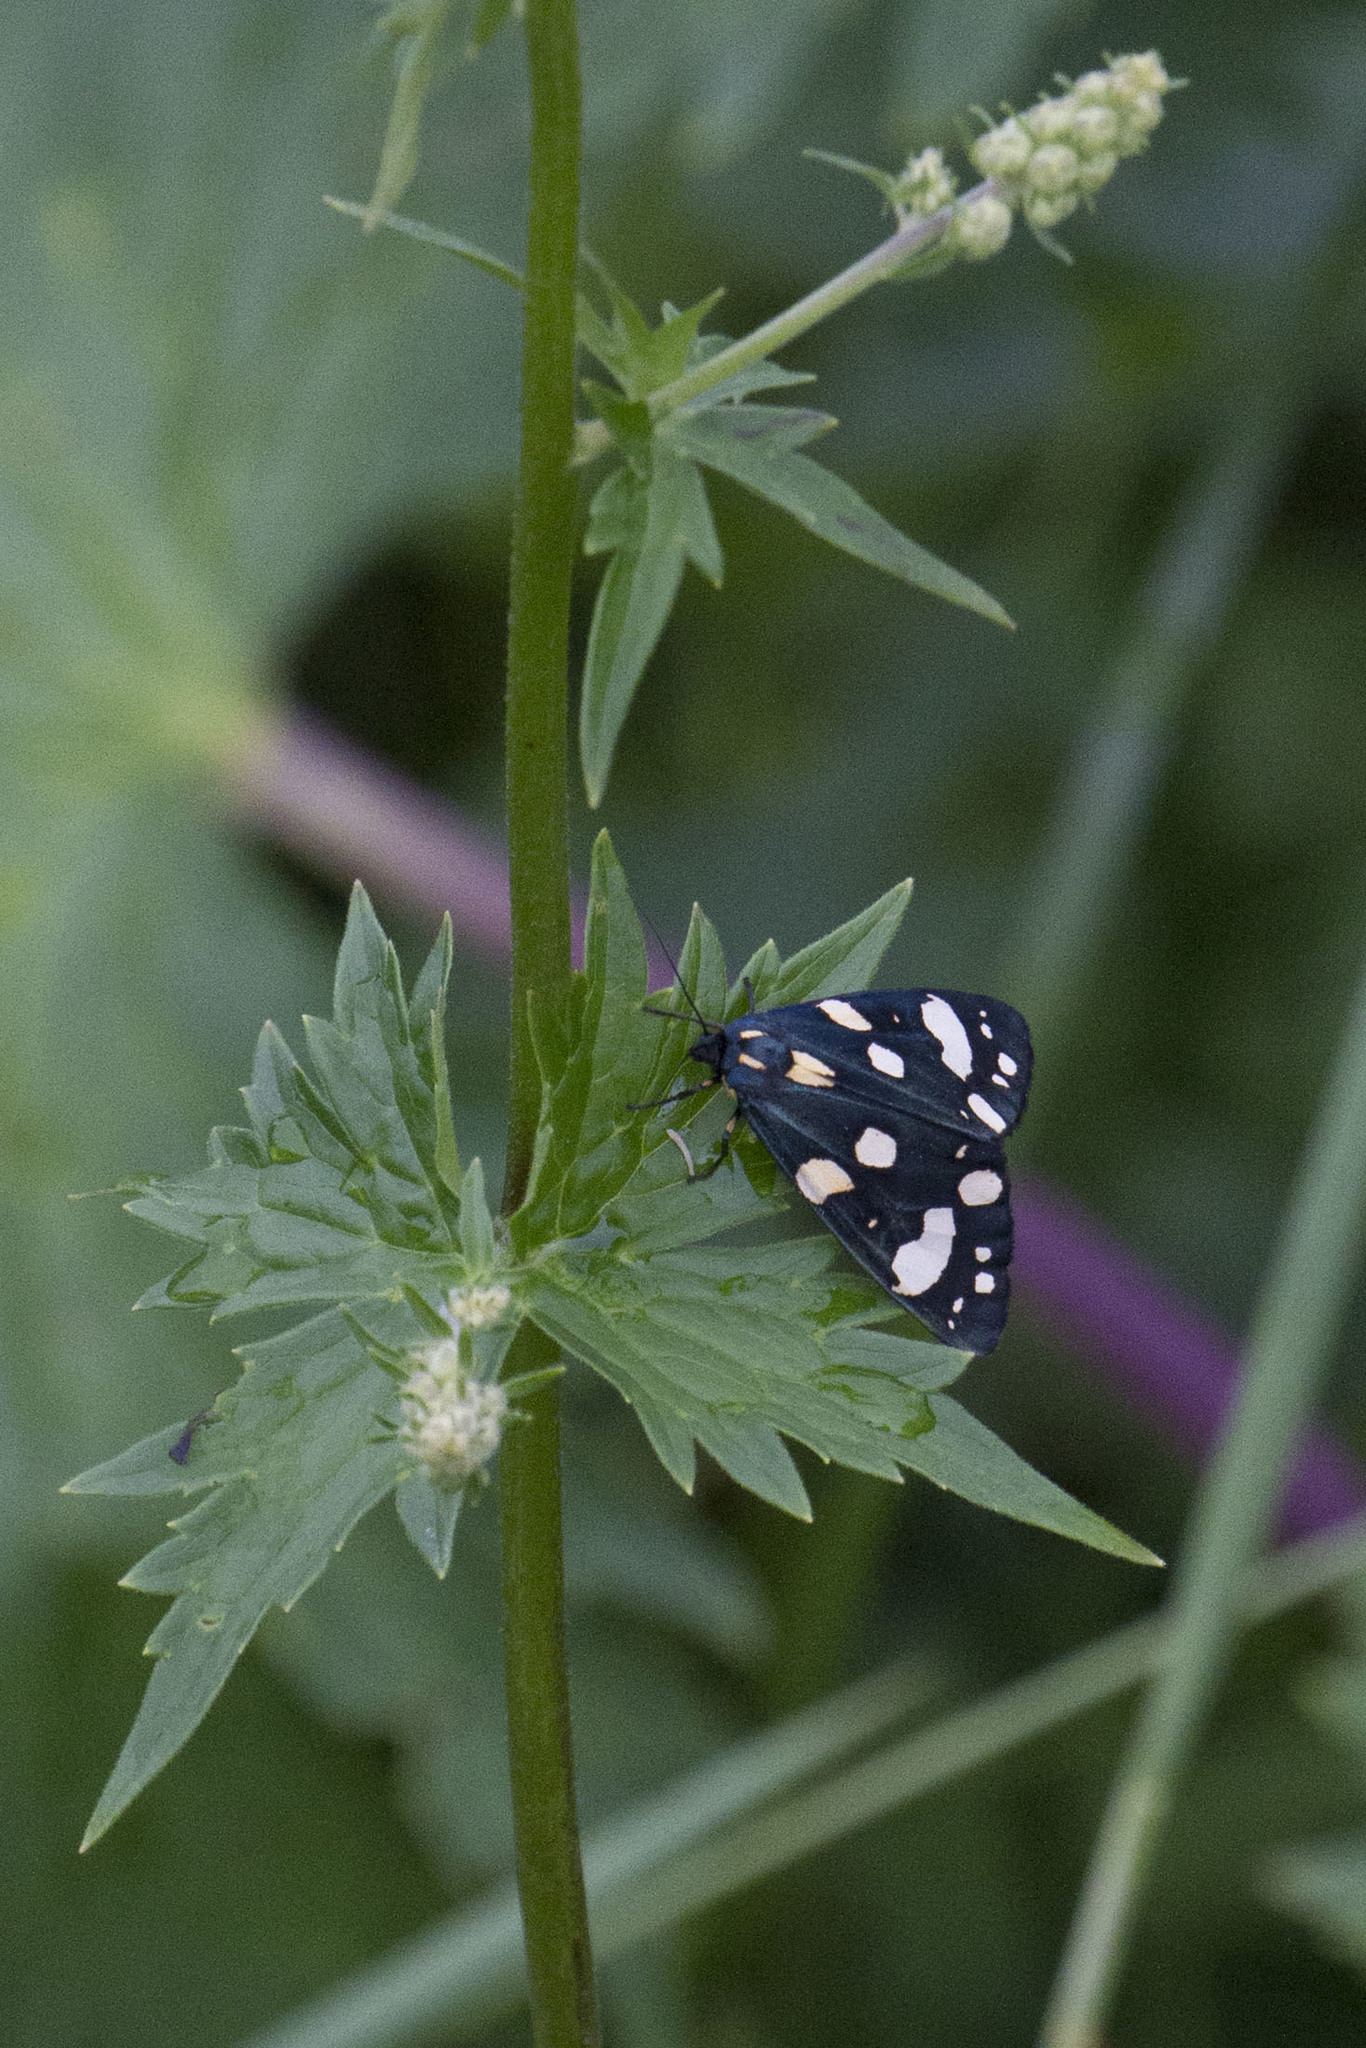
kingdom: Animalia
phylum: Arthropoda
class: Insecta
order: Lepidoptera
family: Erebidae
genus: Callimorpha
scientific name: Callimorpha dominula
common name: Scarlet tiger
